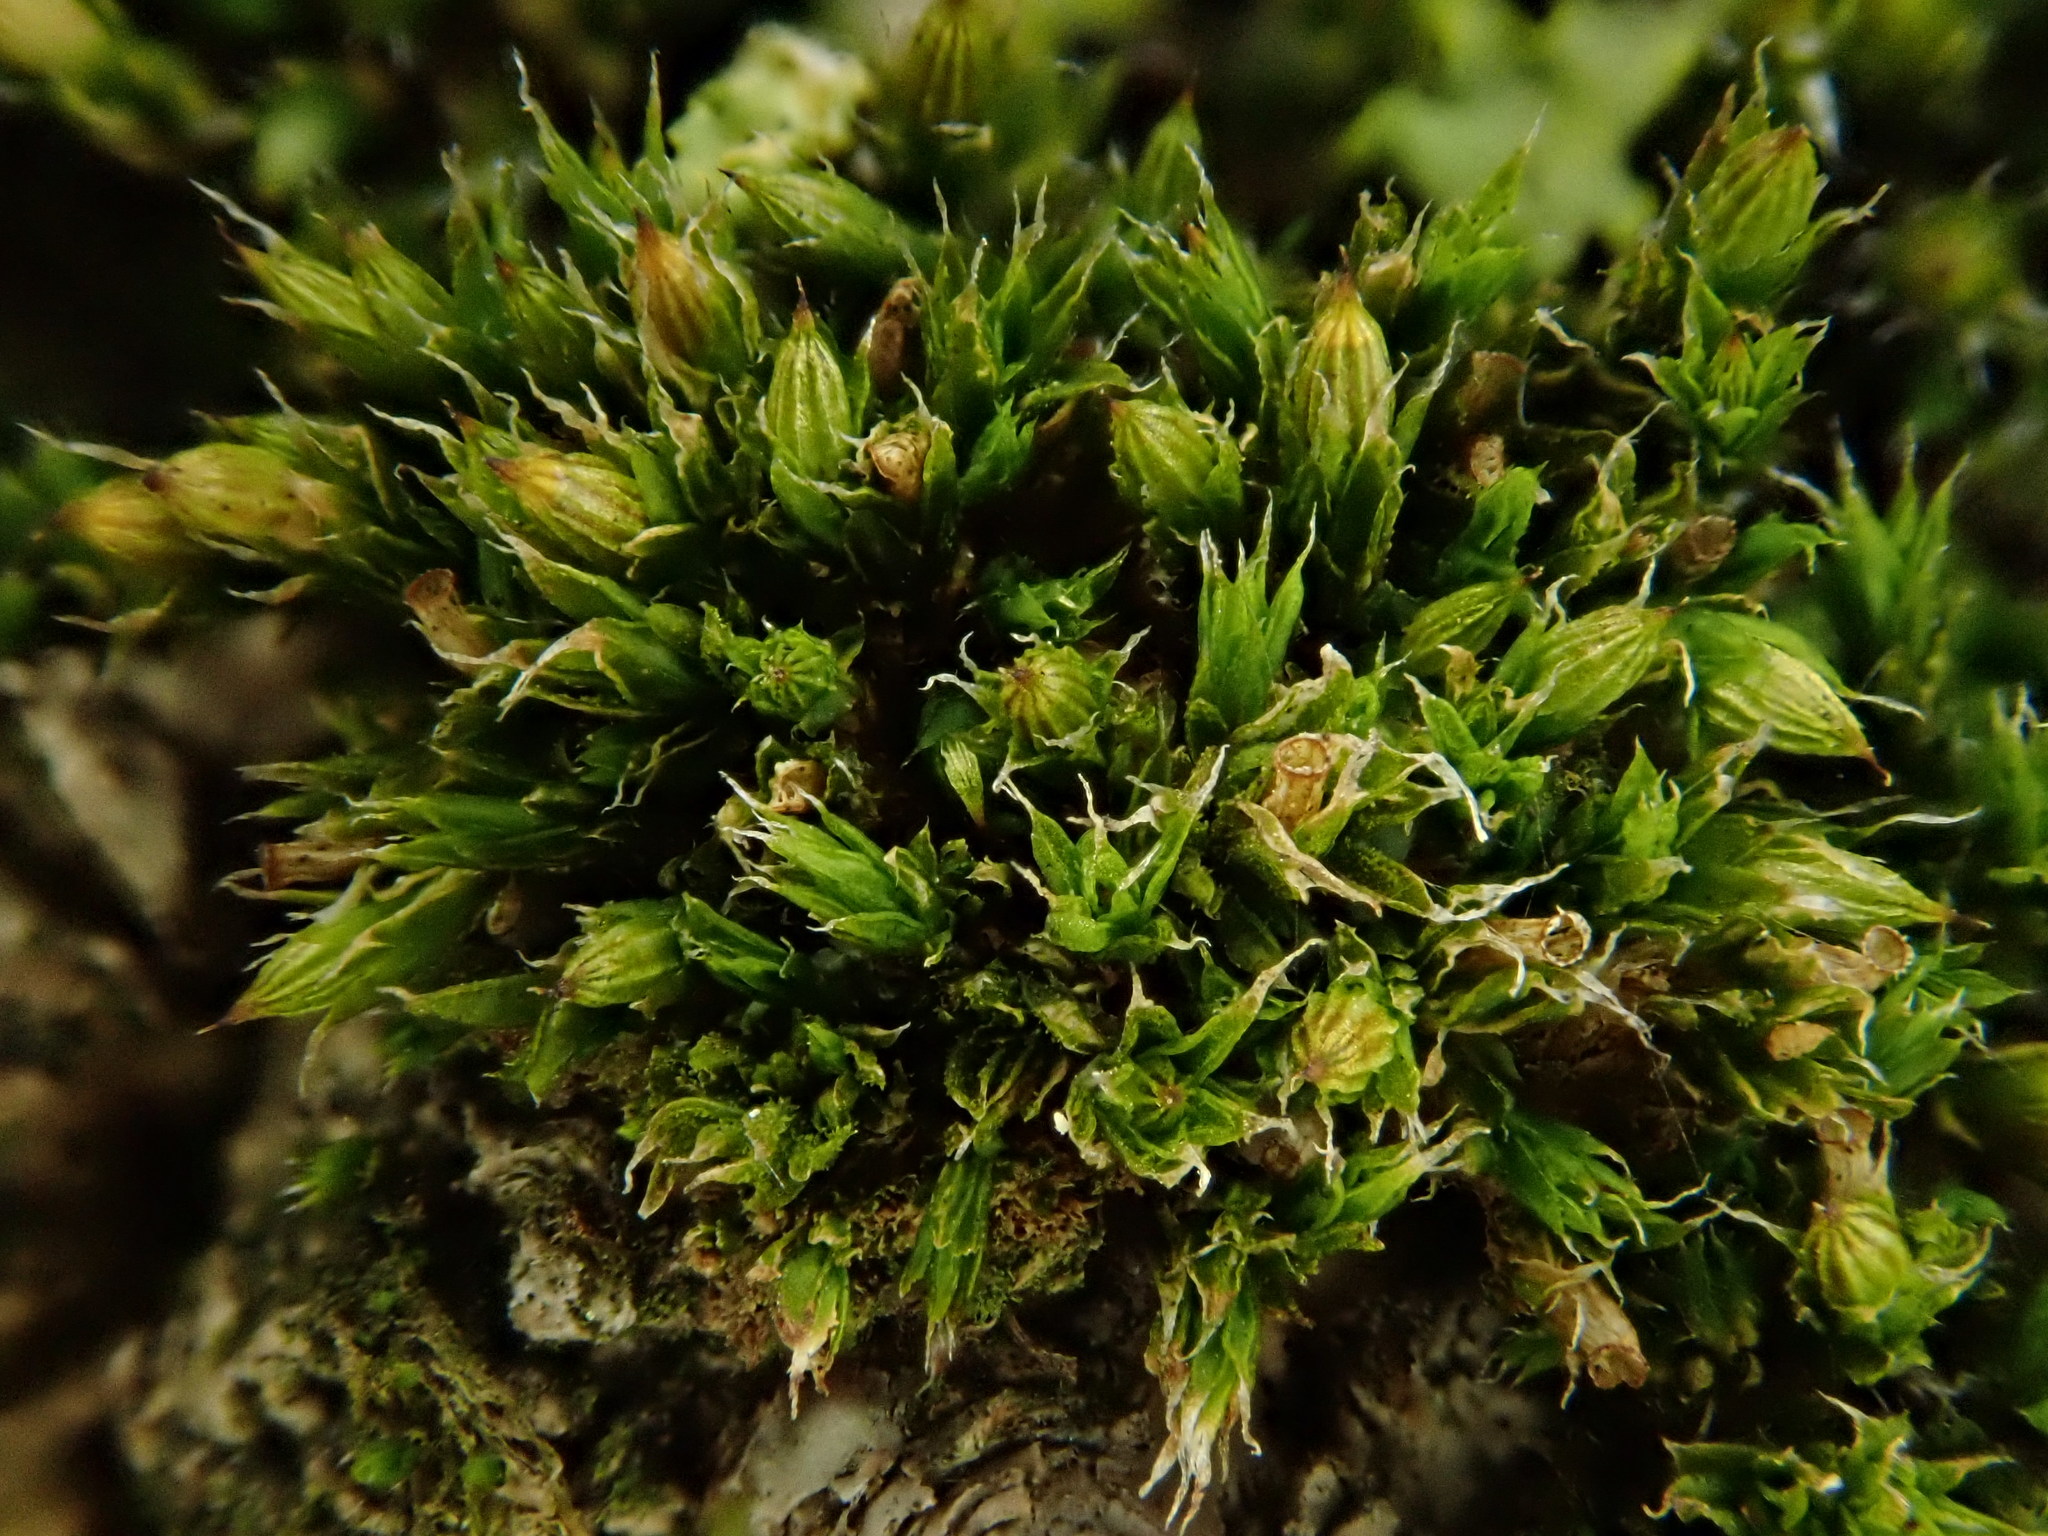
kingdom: Plantae
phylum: Bryophyta
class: Bryopsida
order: Orthotrichales
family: Orthotrichaceae
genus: Orthotrichum
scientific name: Orthotrichum diaphanum
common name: White-tipped bristle-moss
